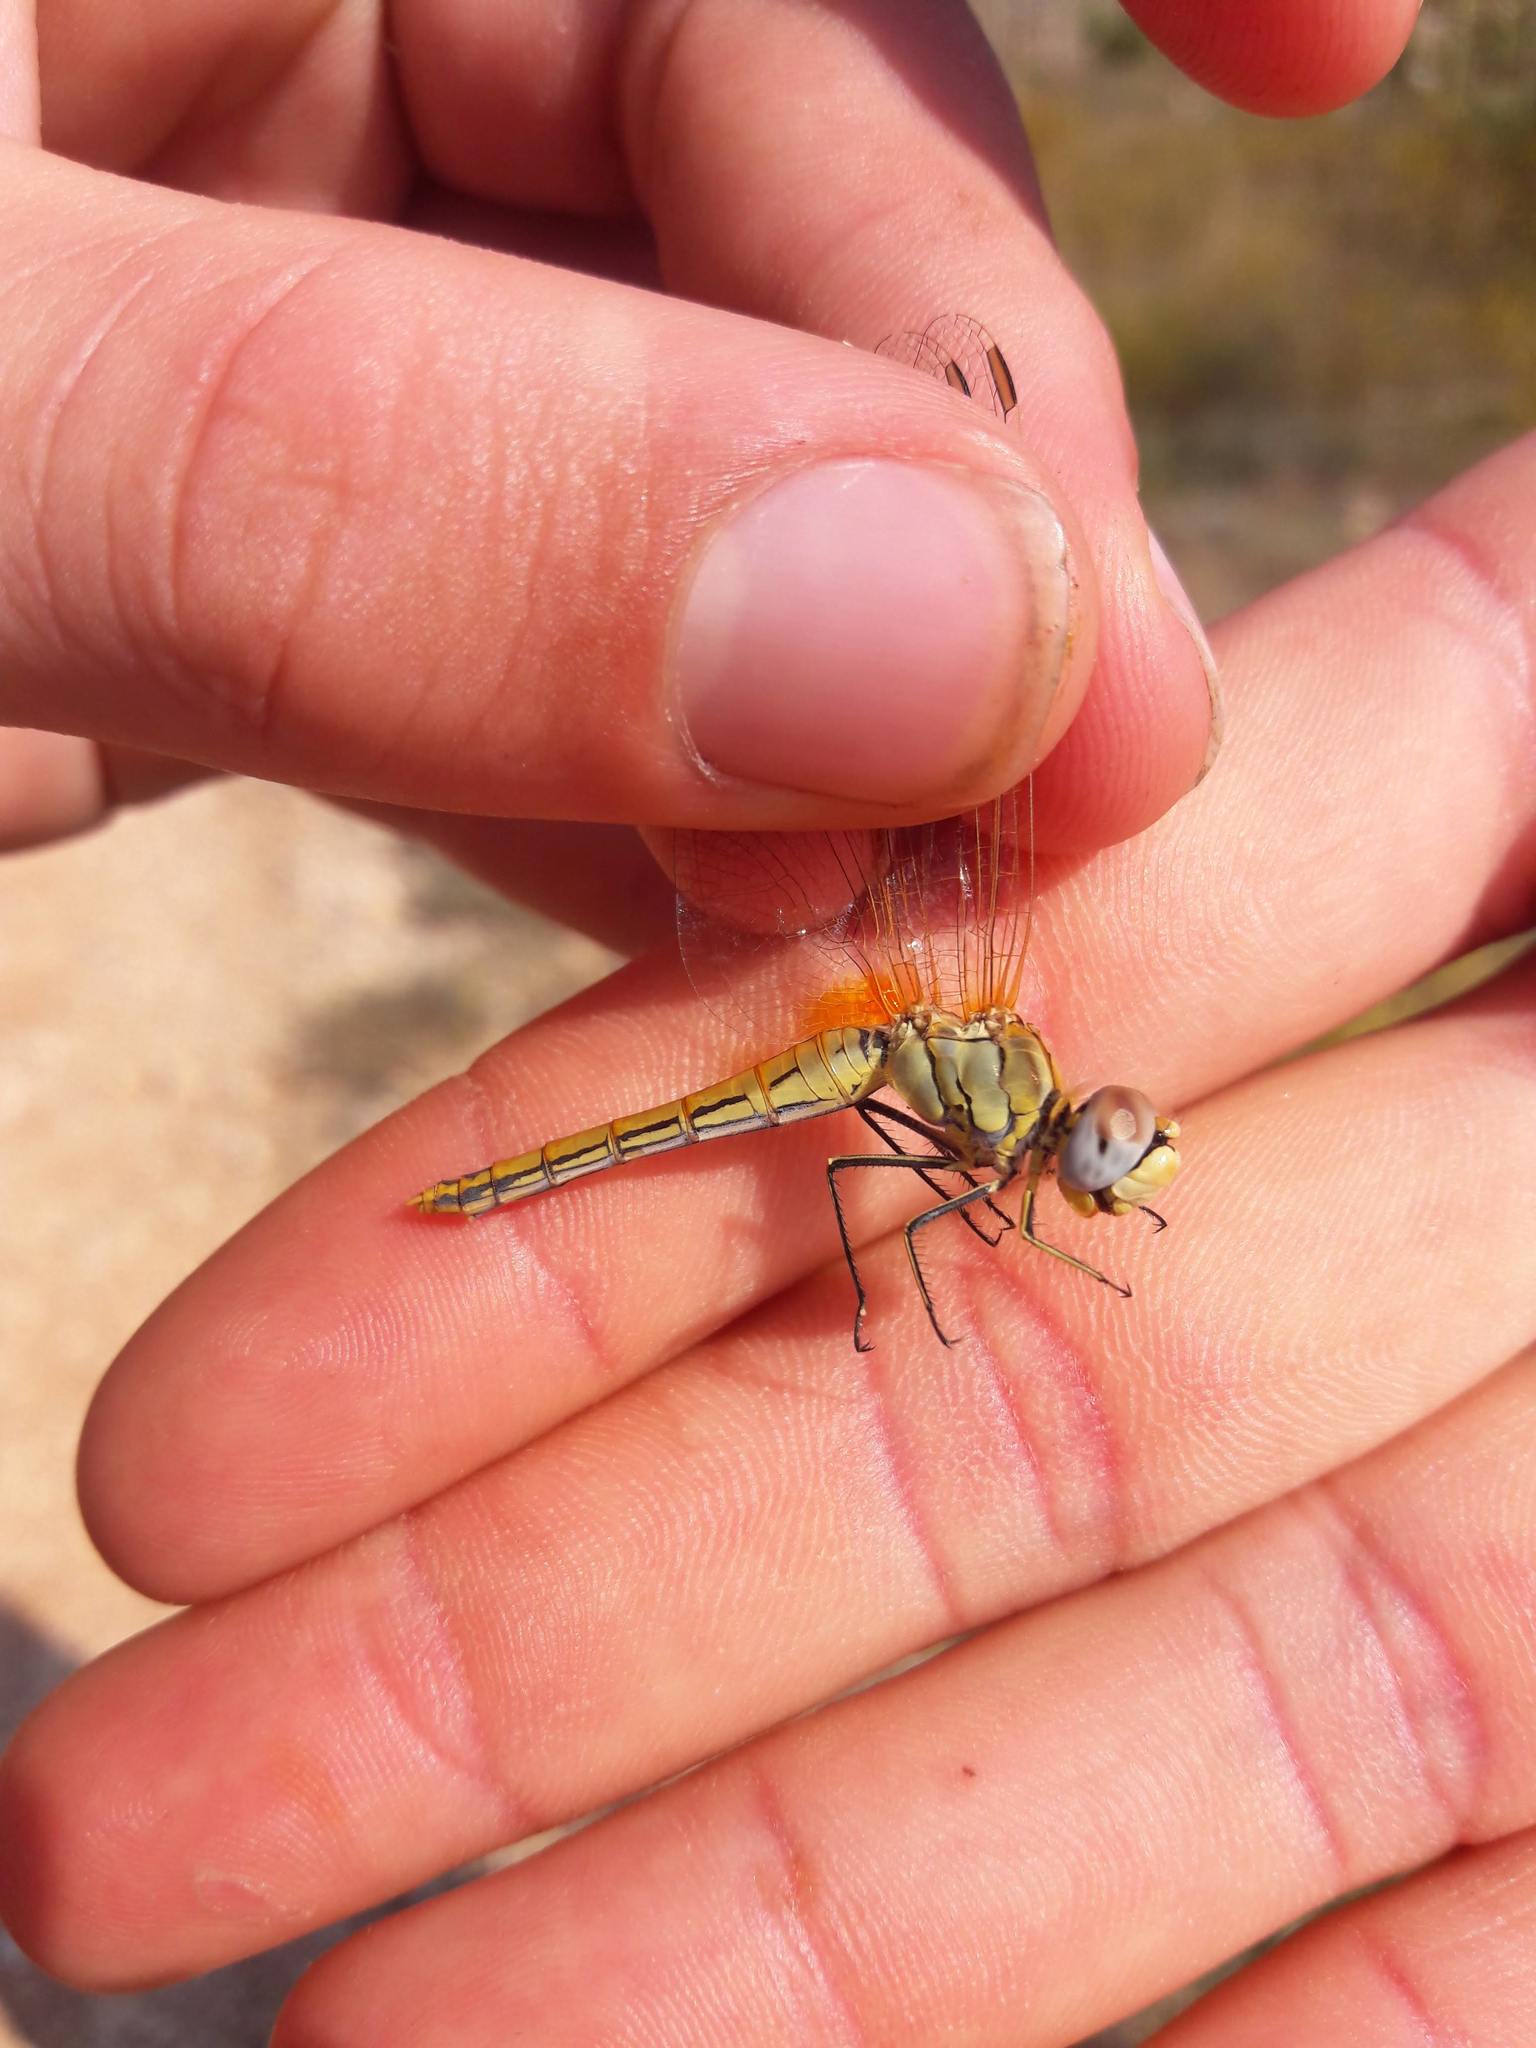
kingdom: Animalia
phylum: Arthropoda
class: Insecta
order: Odonata
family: Libellulidae
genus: Sympetrum
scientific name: Sympetrum fonscolombii
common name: Red-veined darter
